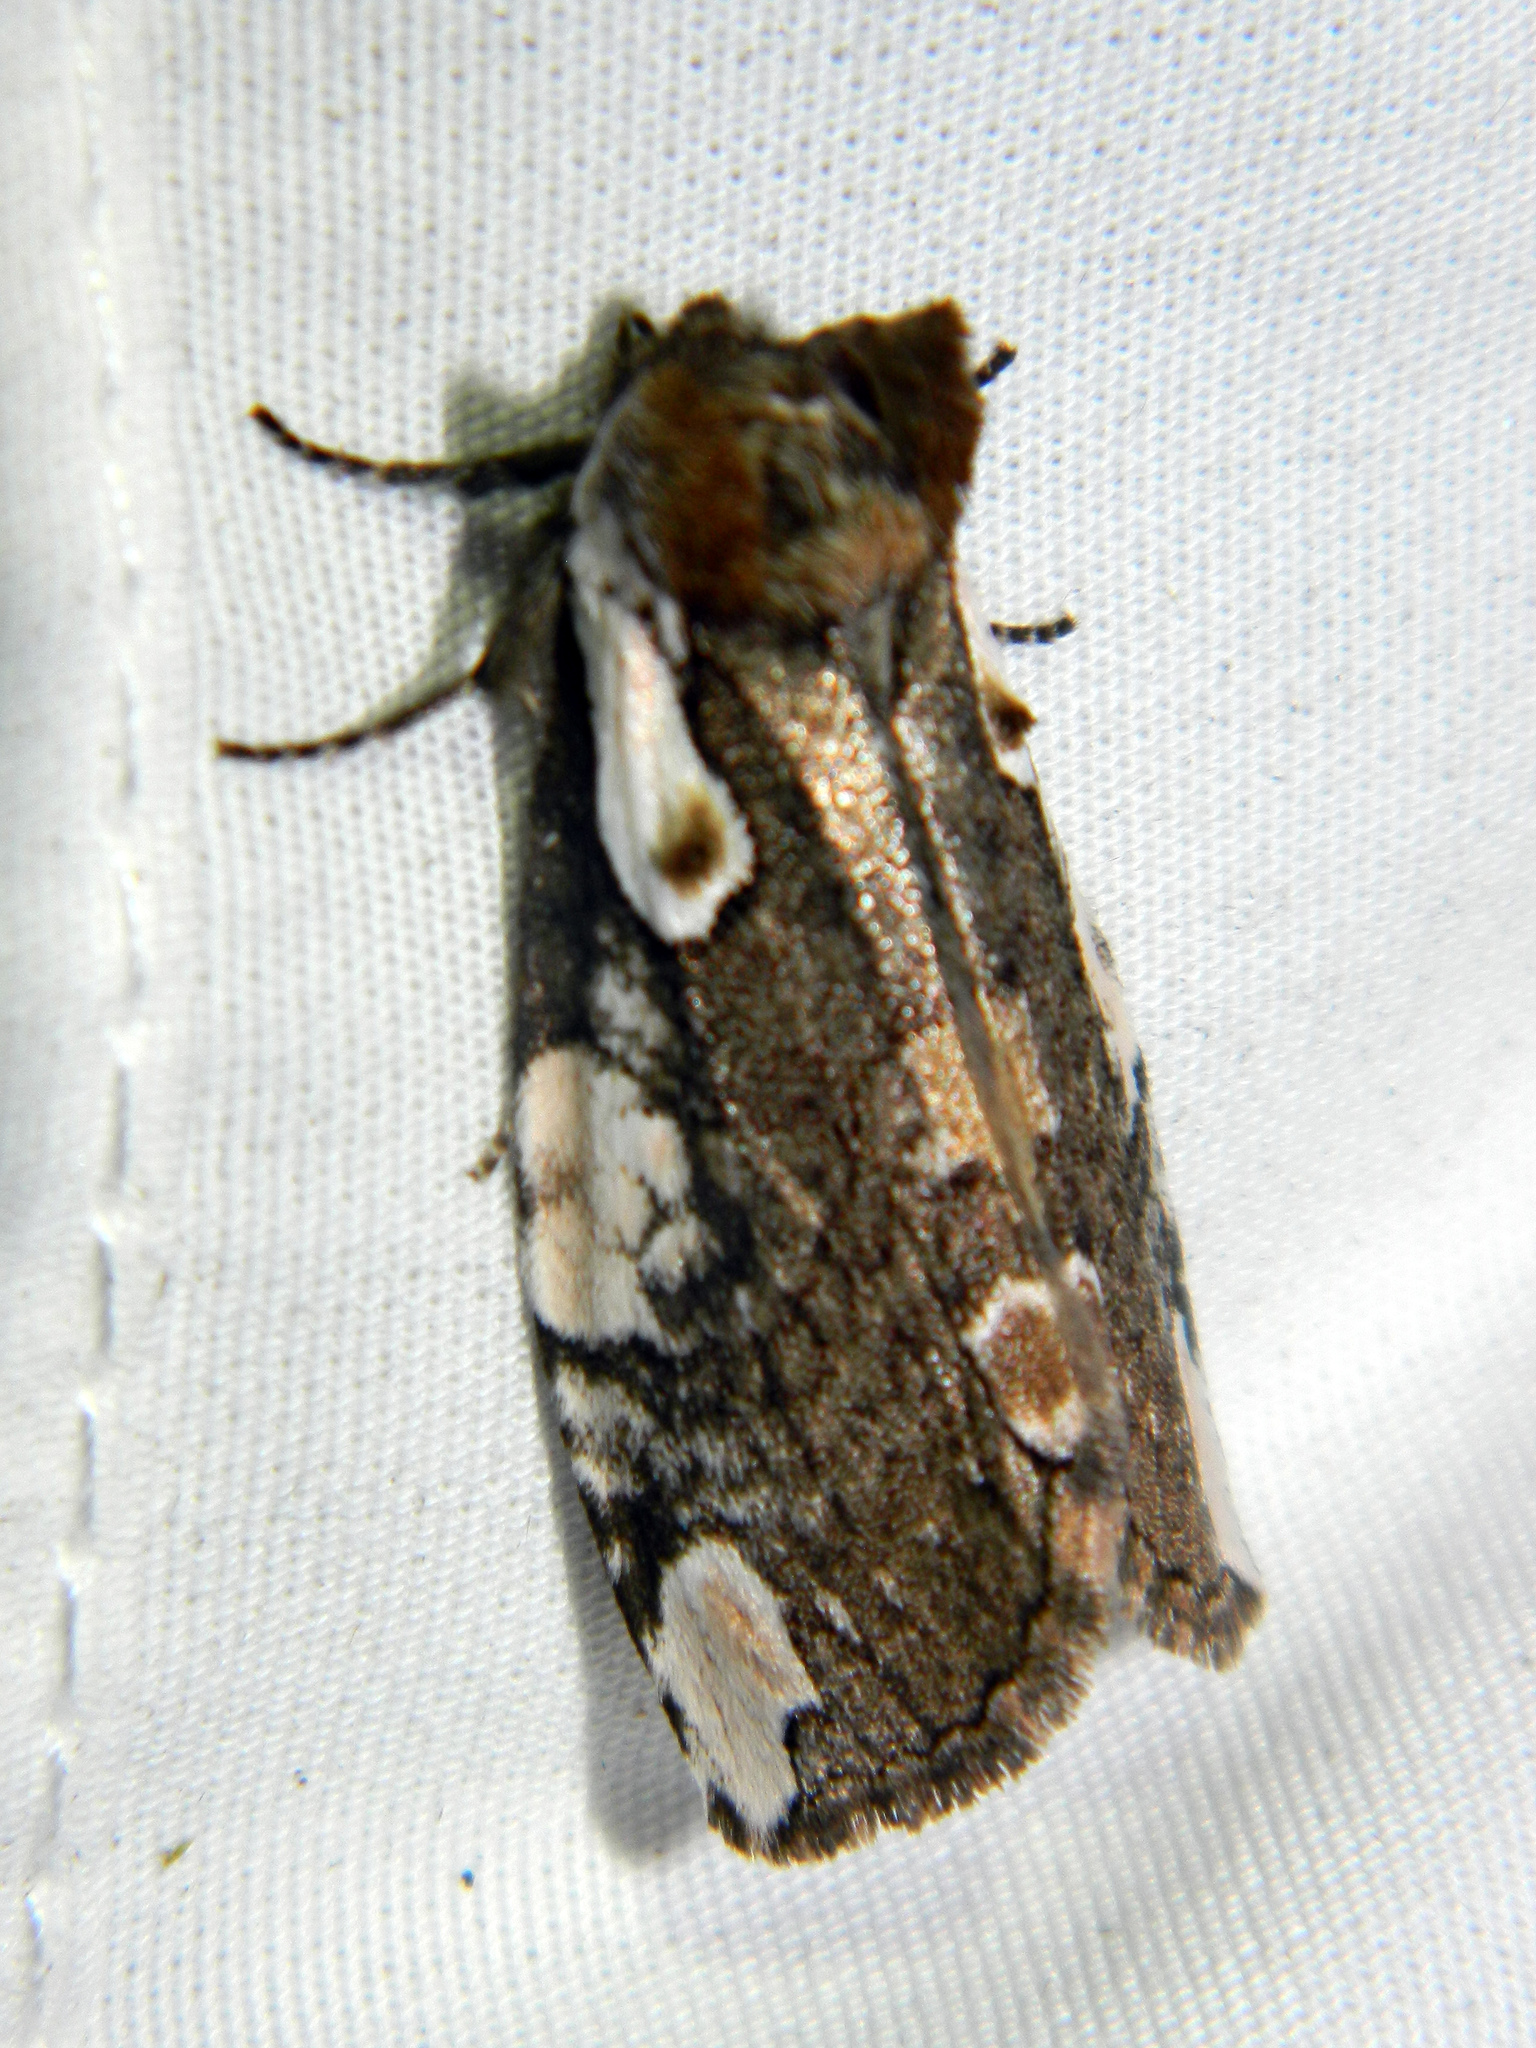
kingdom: Animalia
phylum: Arthropoda
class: Insecta
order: Lepidoptera
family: Drepanidae
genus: Euthyatira
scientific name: Euthyatira pudens
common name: Dogwood thyatirid moth
